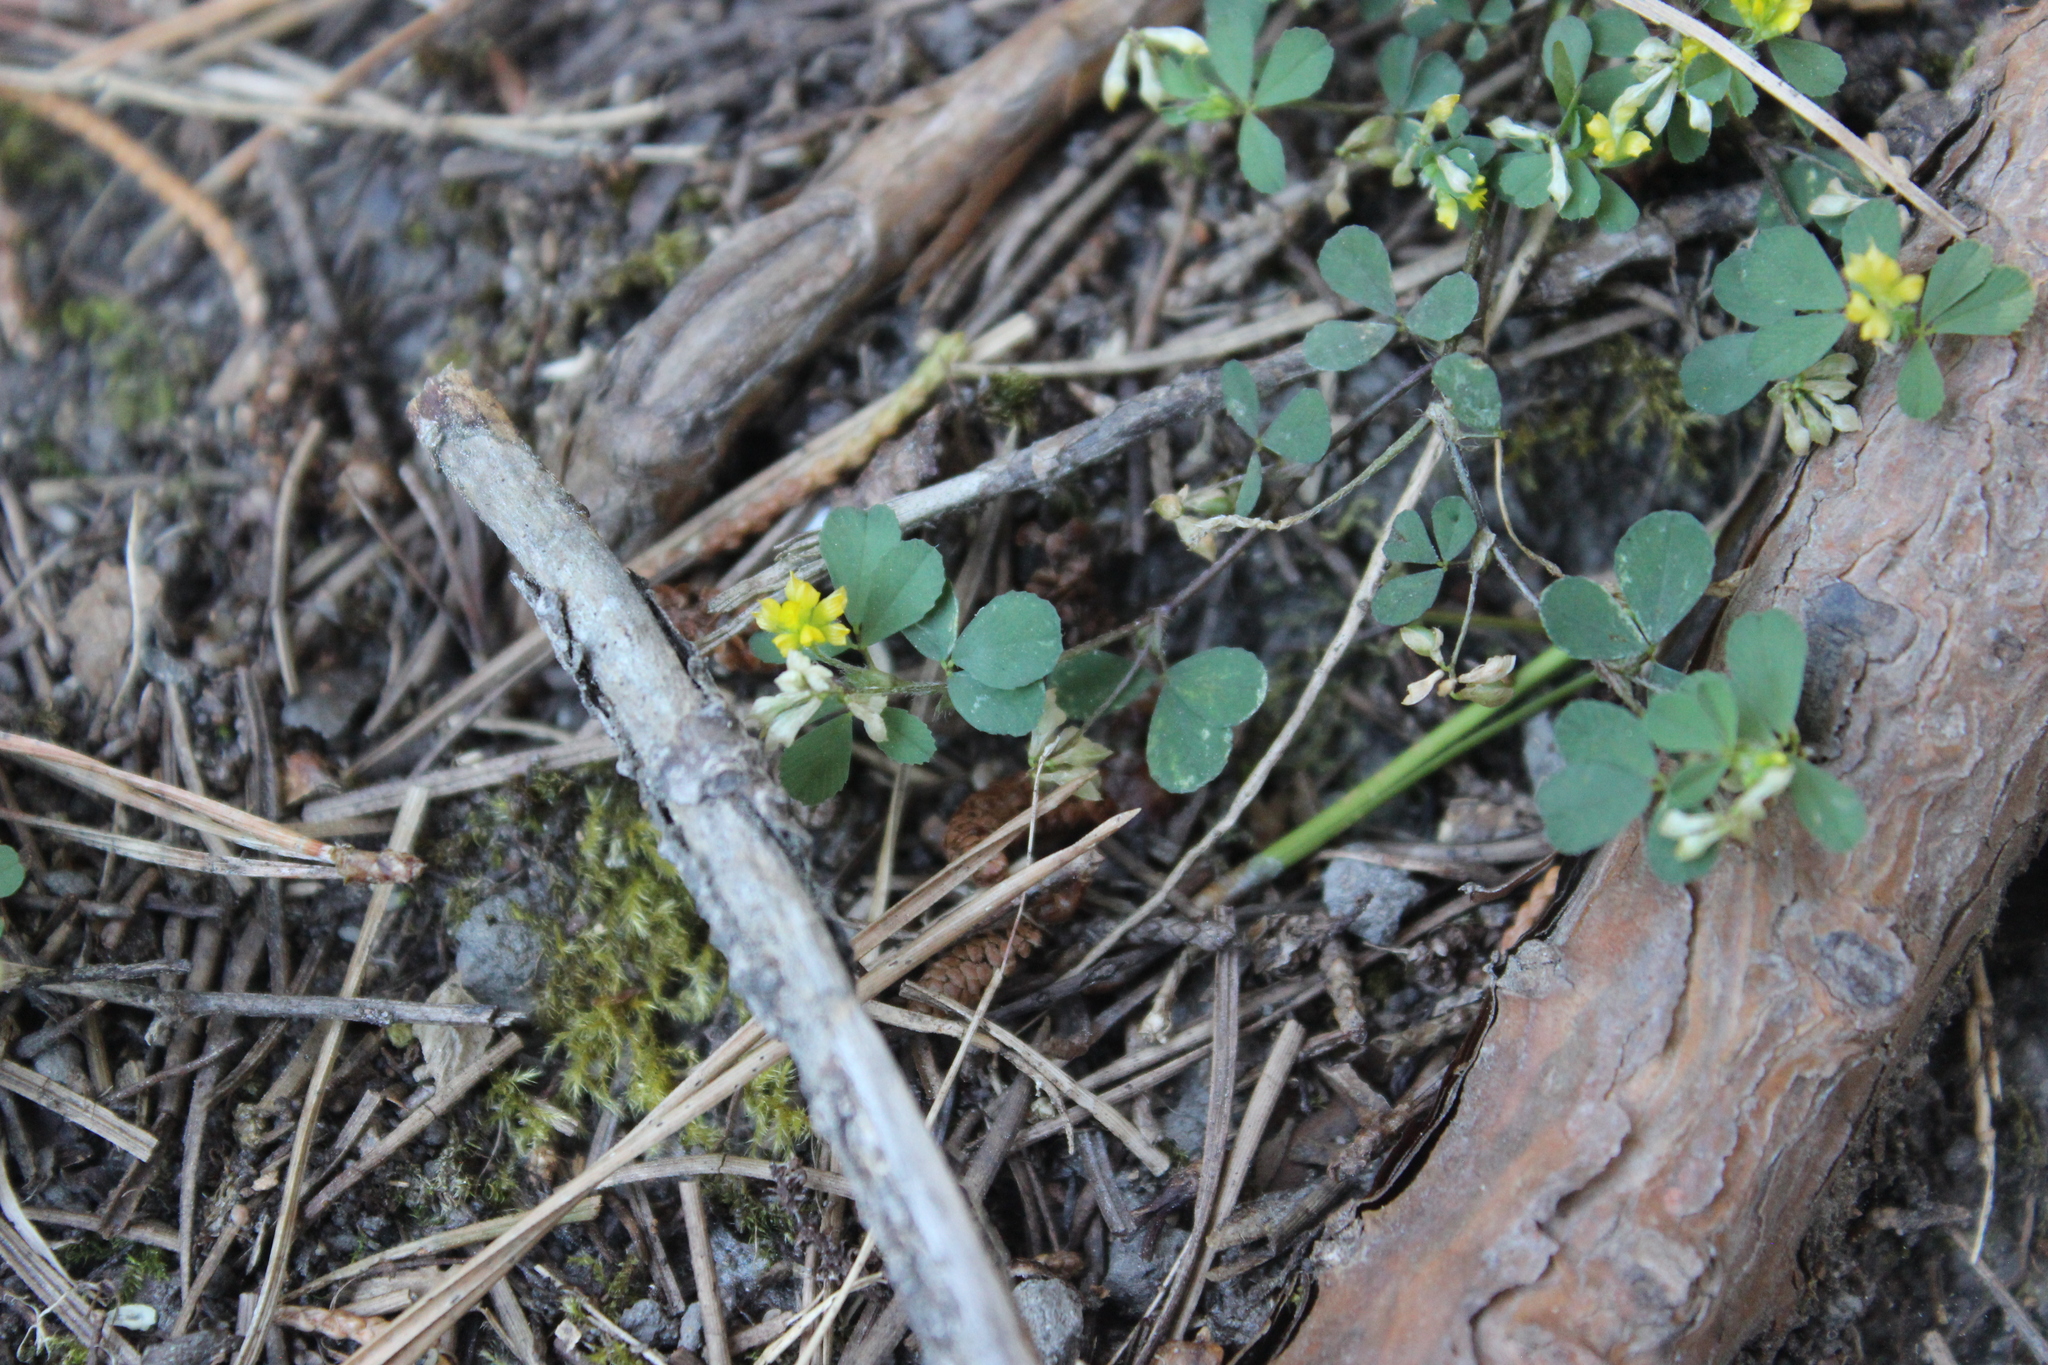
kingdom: Plantae
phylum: Tracheophyta
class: Magnoliopsida
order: Fabales
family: Fabaceae
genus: Trifolium
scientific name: Trifolium dubium
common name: Suckling clover
